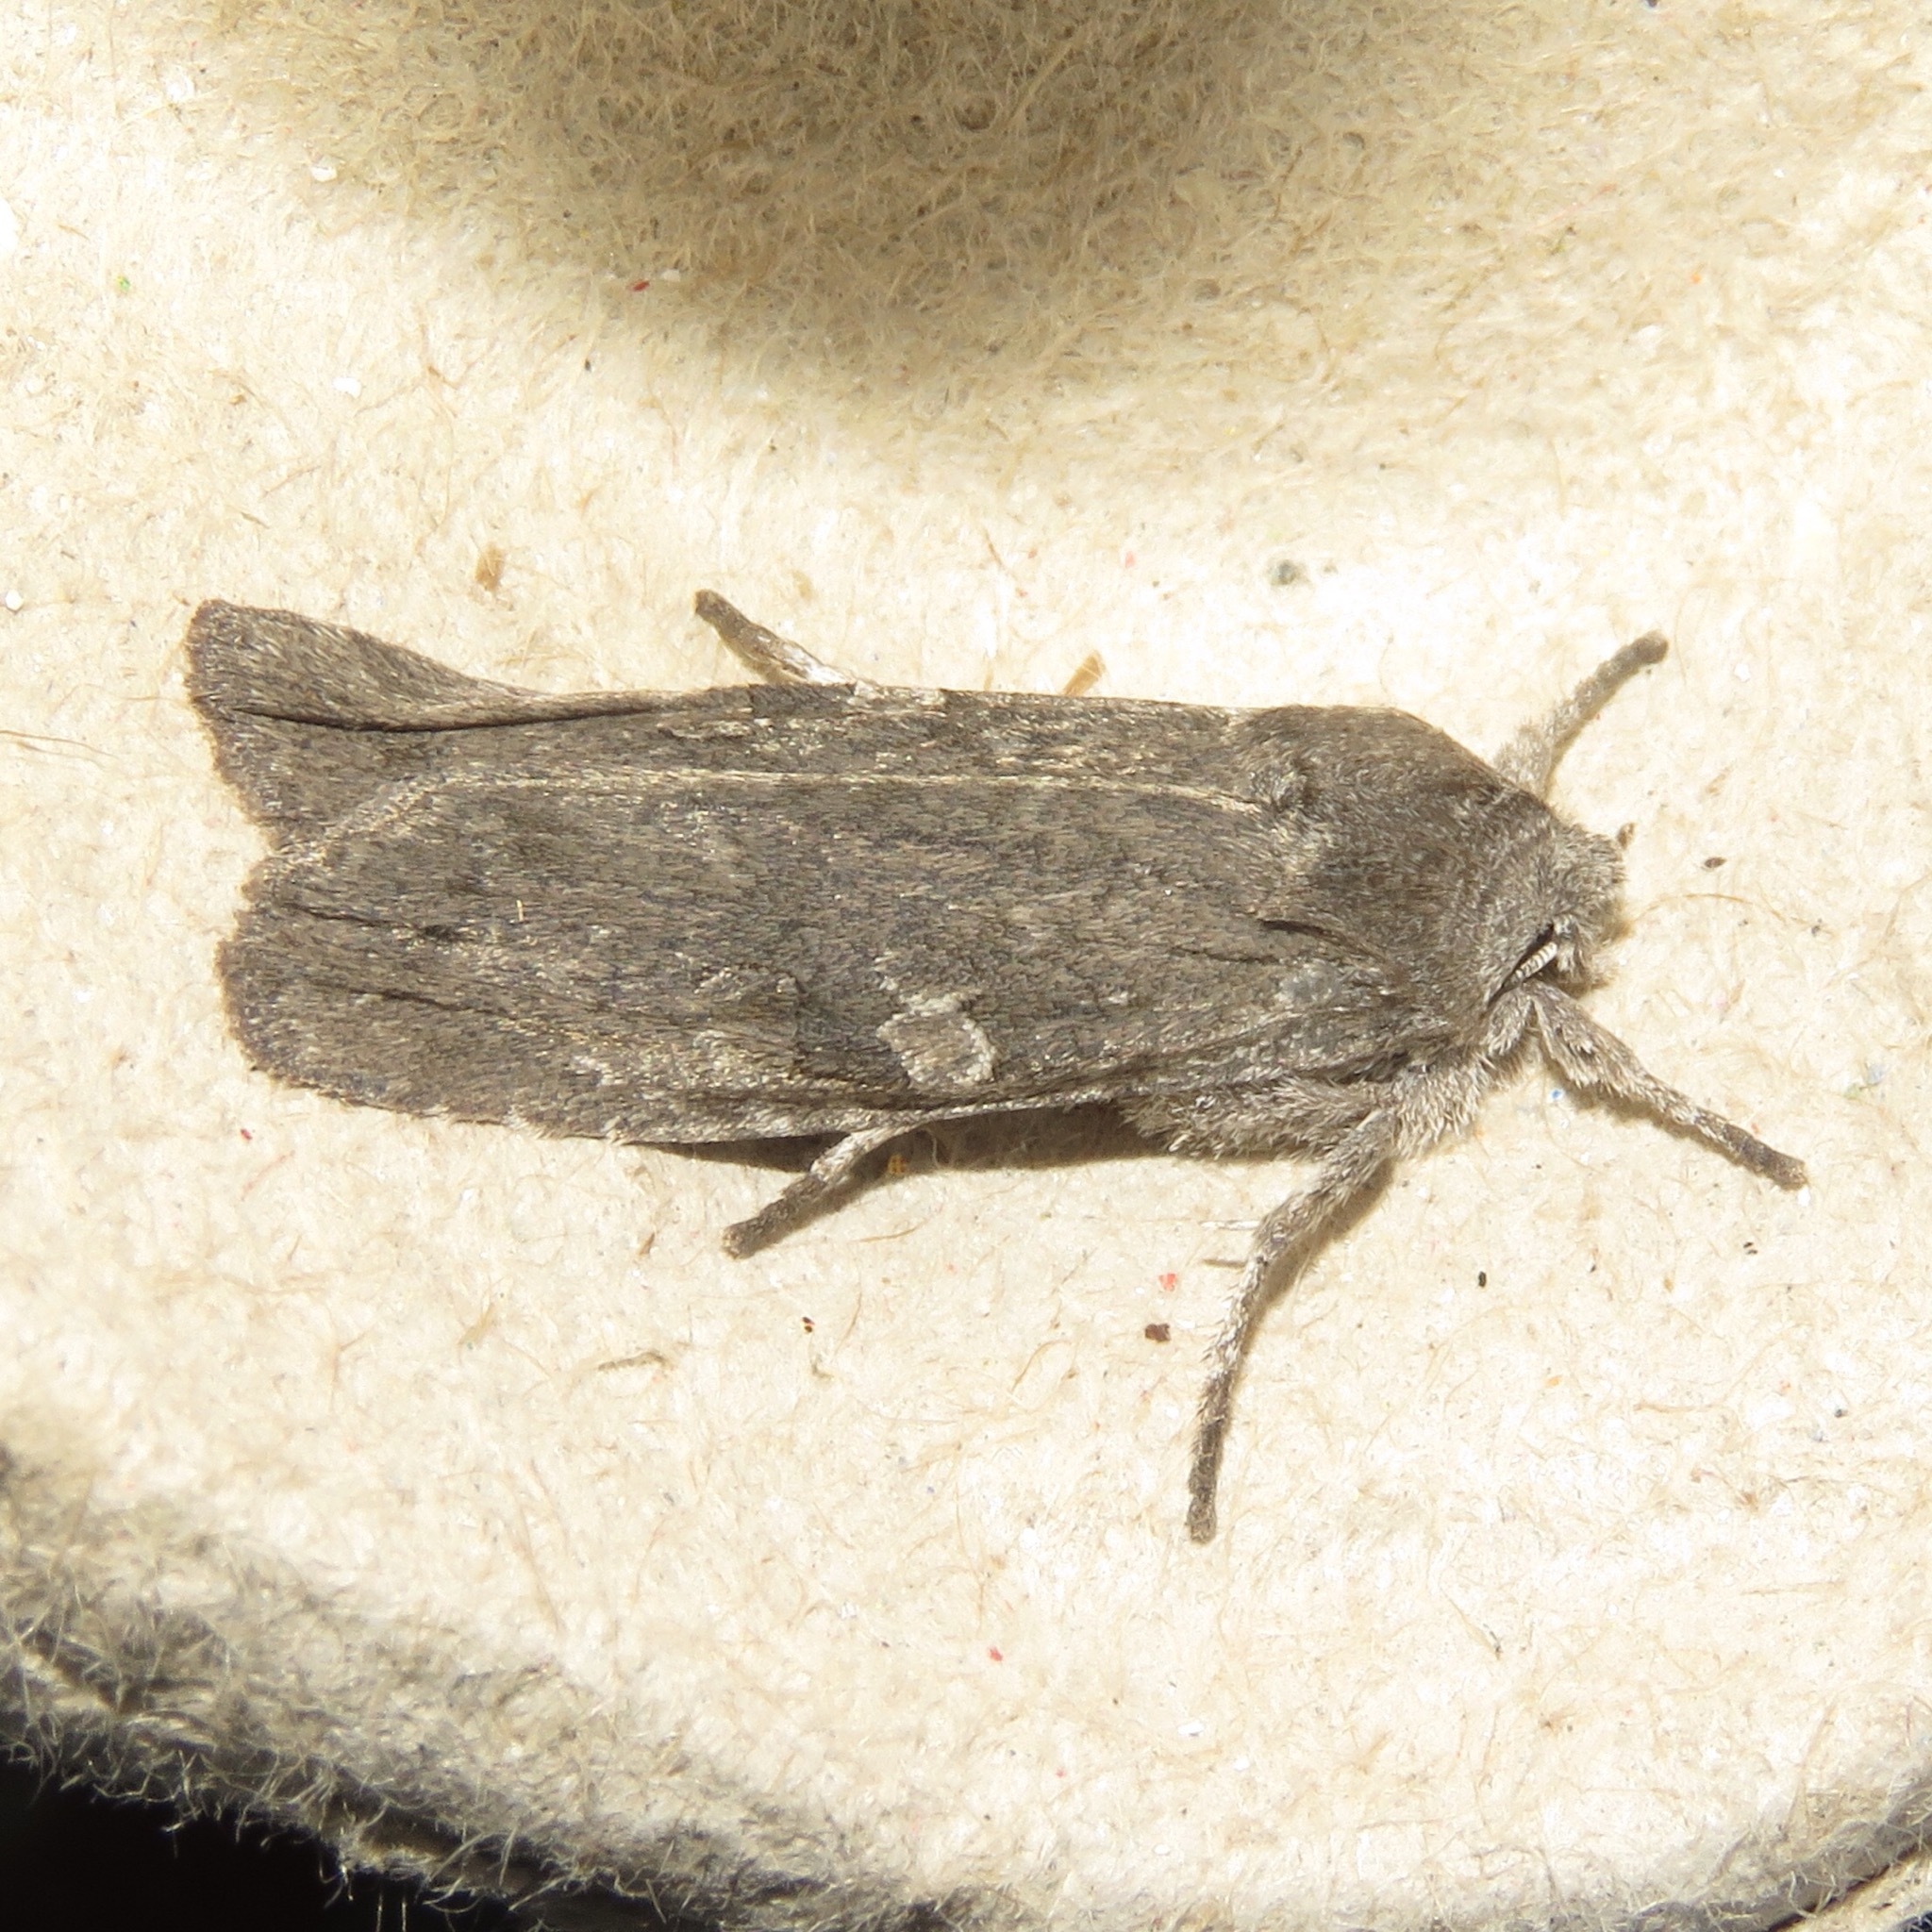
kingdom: Animalia
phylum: Arthropoda
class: Insecta
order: Lepidoptera
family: Noctuidae
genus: Lithophane
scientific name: Lithophane unimoda
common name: Dowdy pinion
